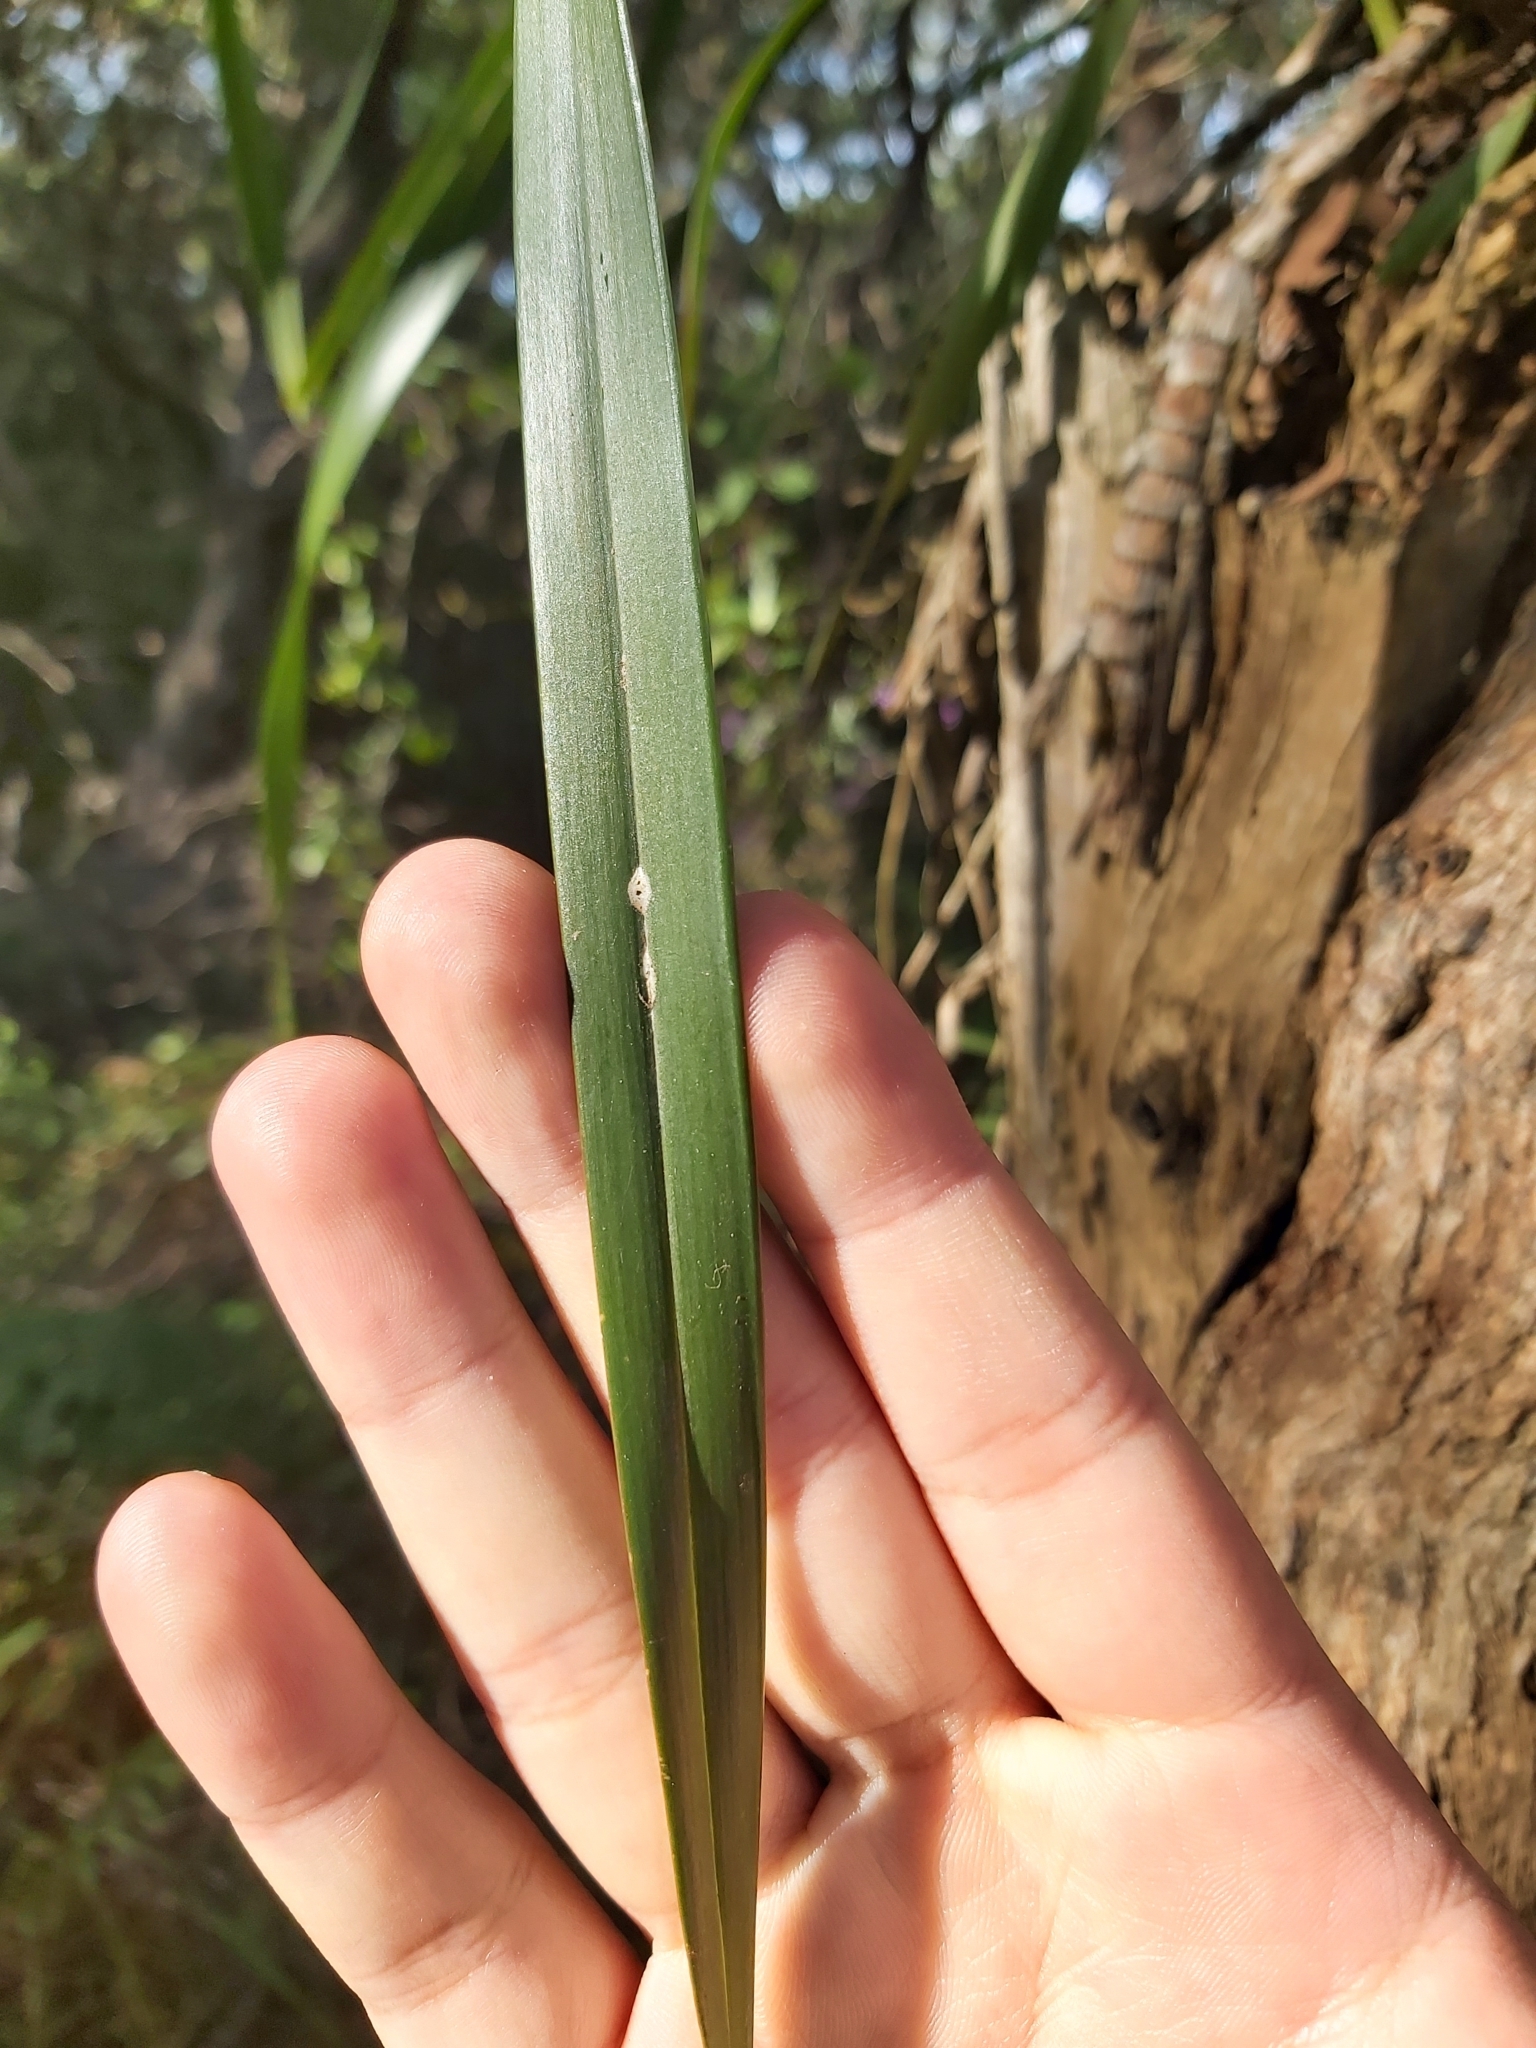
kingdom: Plantae
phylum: Tracheophyta
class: Liliopsida
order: Asparagales
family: Orchidaceae
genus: Cymbidium
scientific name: Cymbidium suave
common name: Snake orchid
